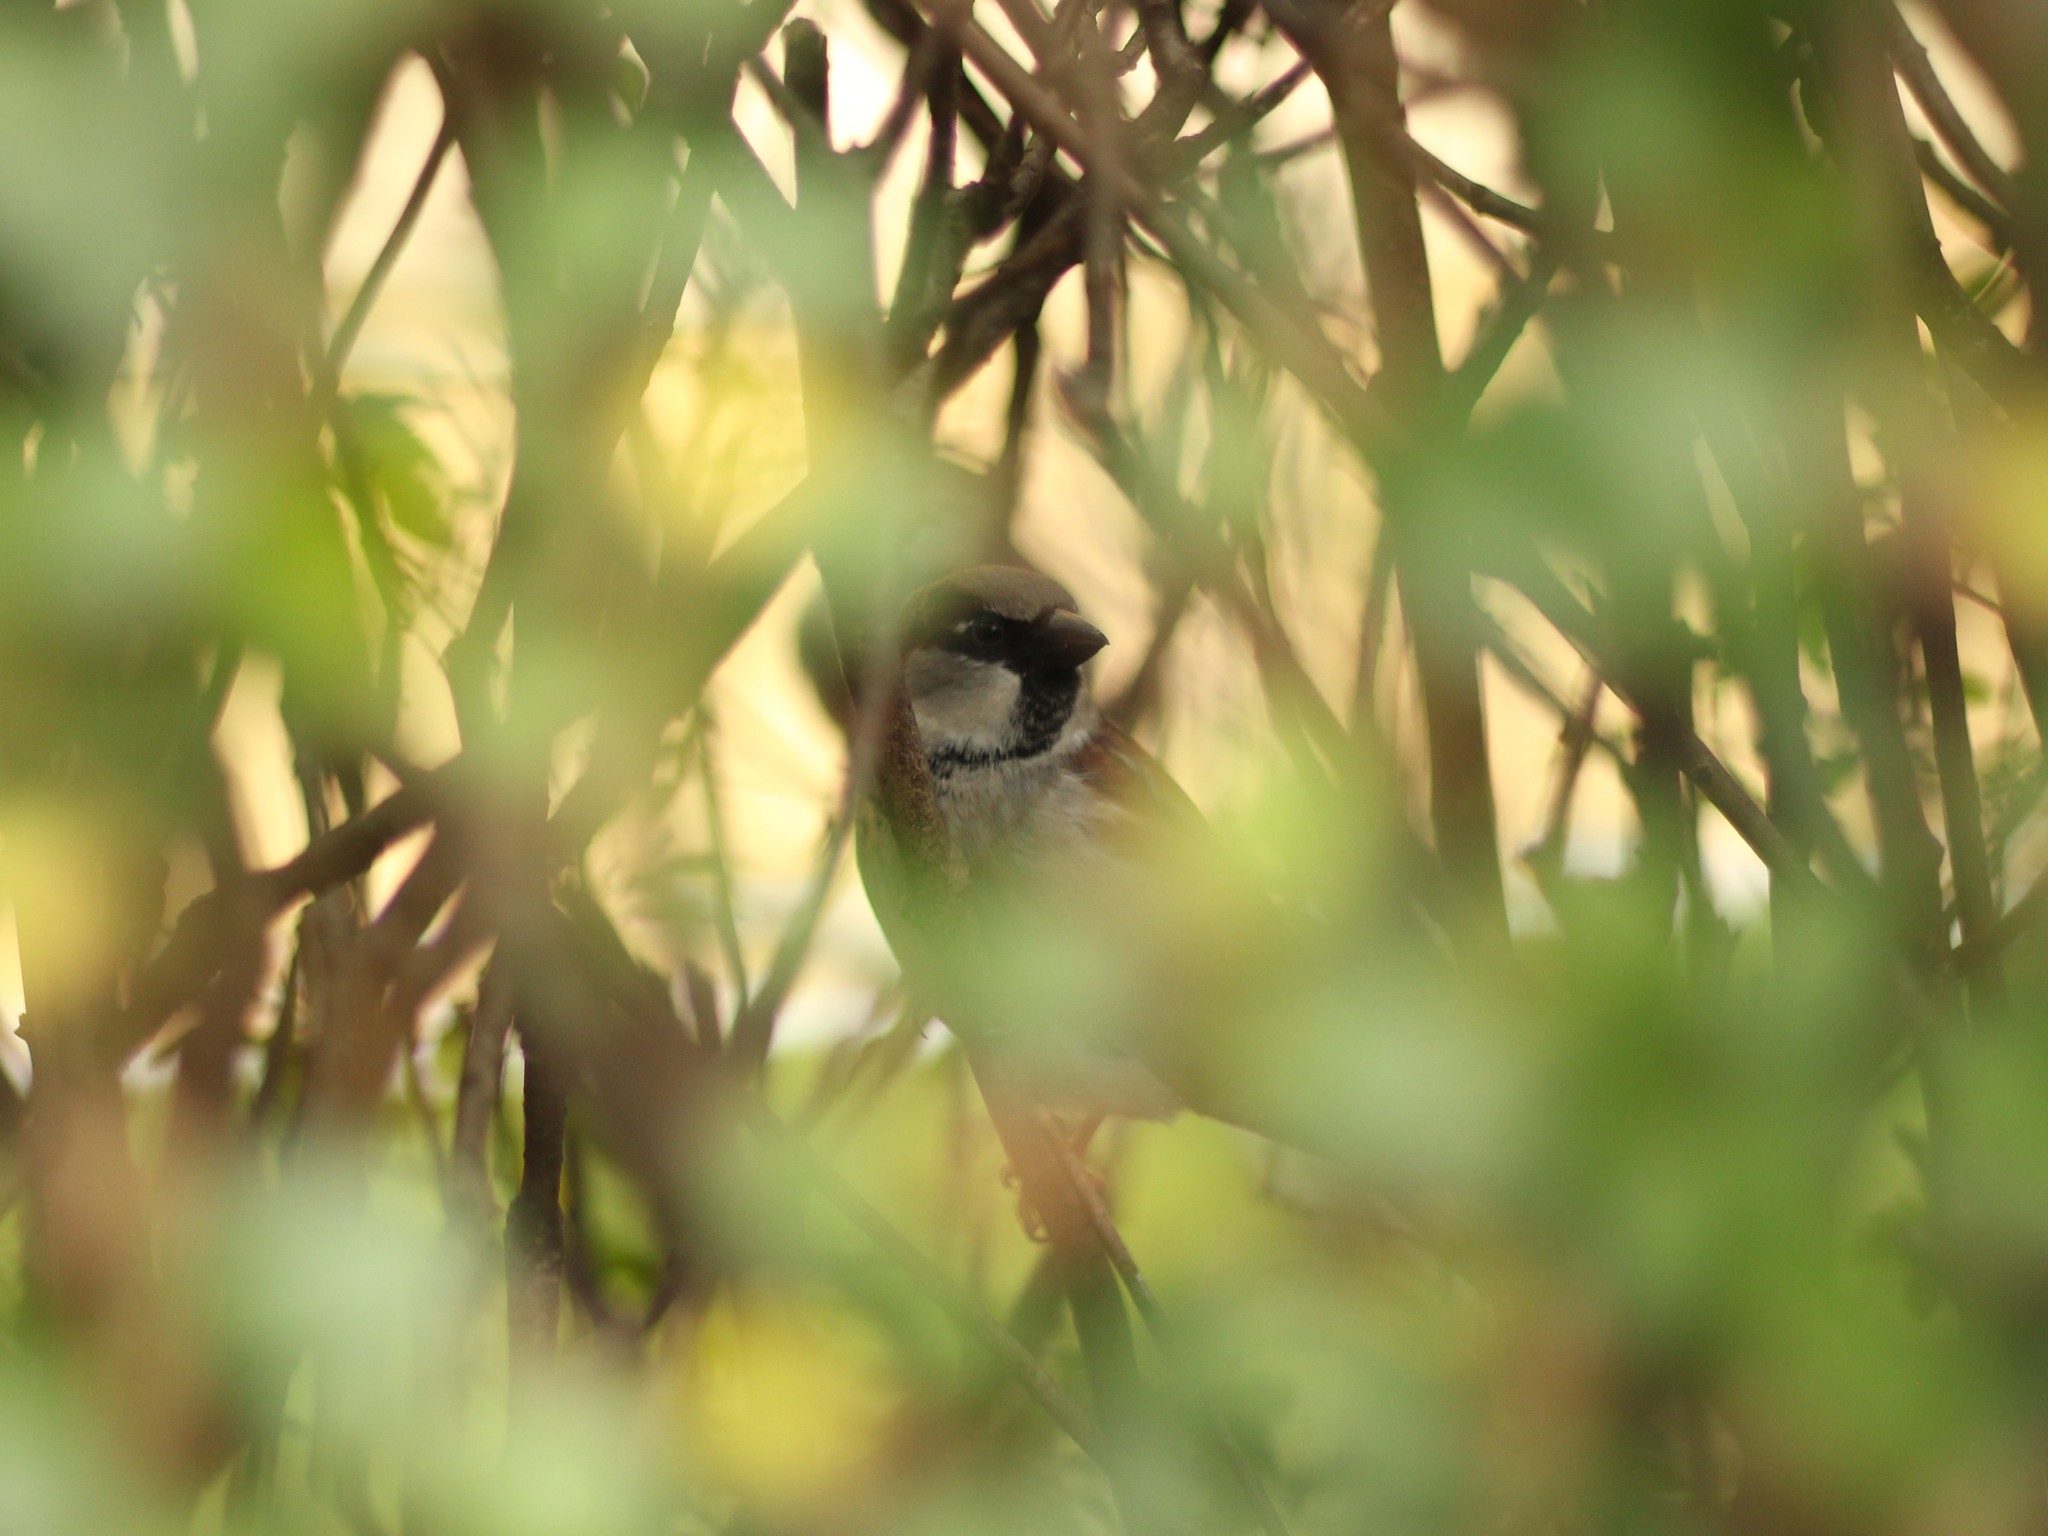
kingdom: Animalia
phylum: Chordata
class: Aves
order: Passeriformes
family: Passeridae
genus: Passer
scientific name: Passer domesticus
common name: House sparrow
